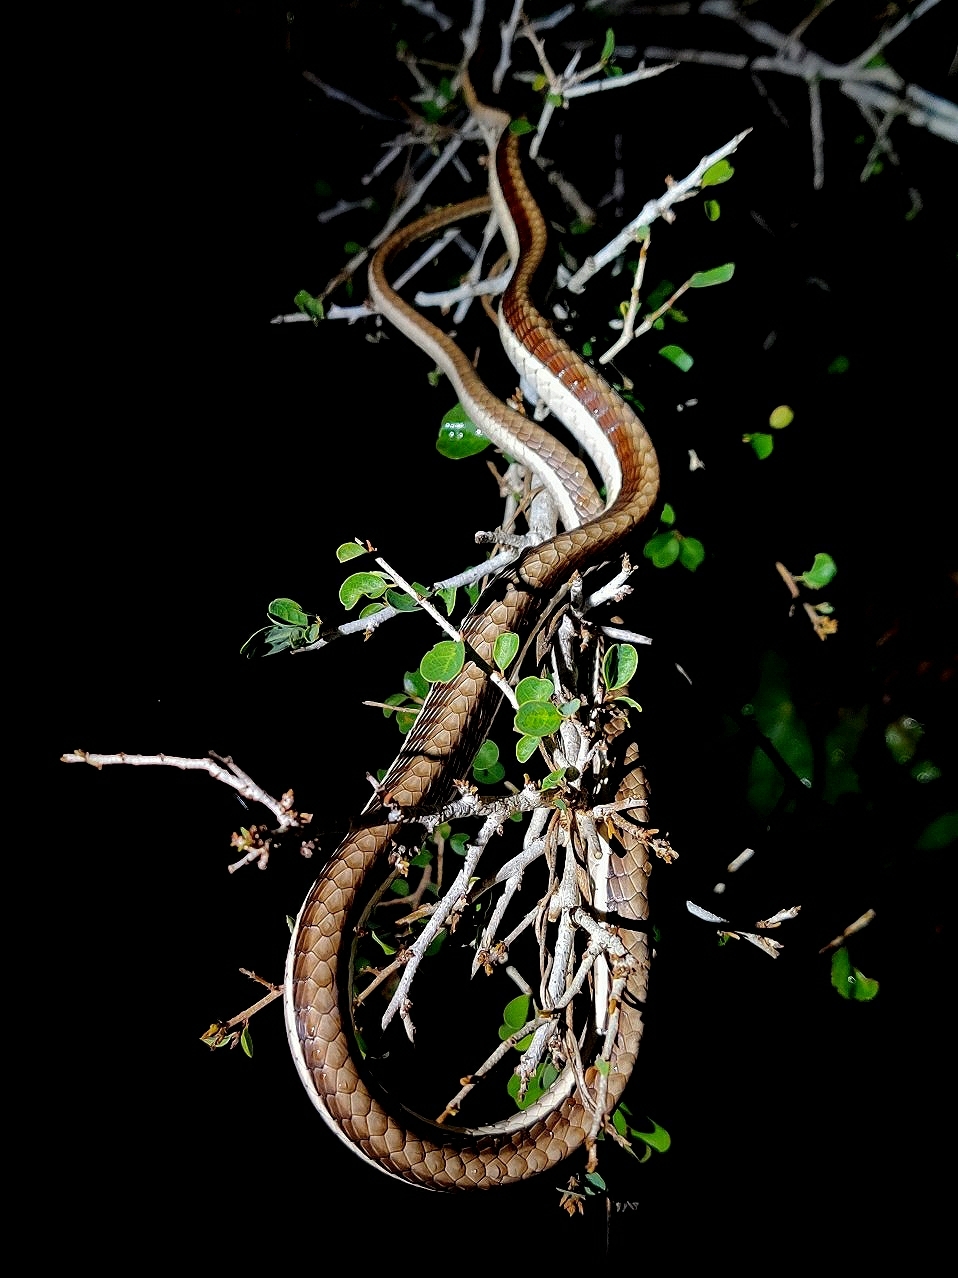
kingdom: Animalia
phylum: Chordata
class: Squamata
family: Colubridae
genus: Dendrelaphis
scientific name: Dendrelaphis tristis
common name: Daudin's bronzeback
